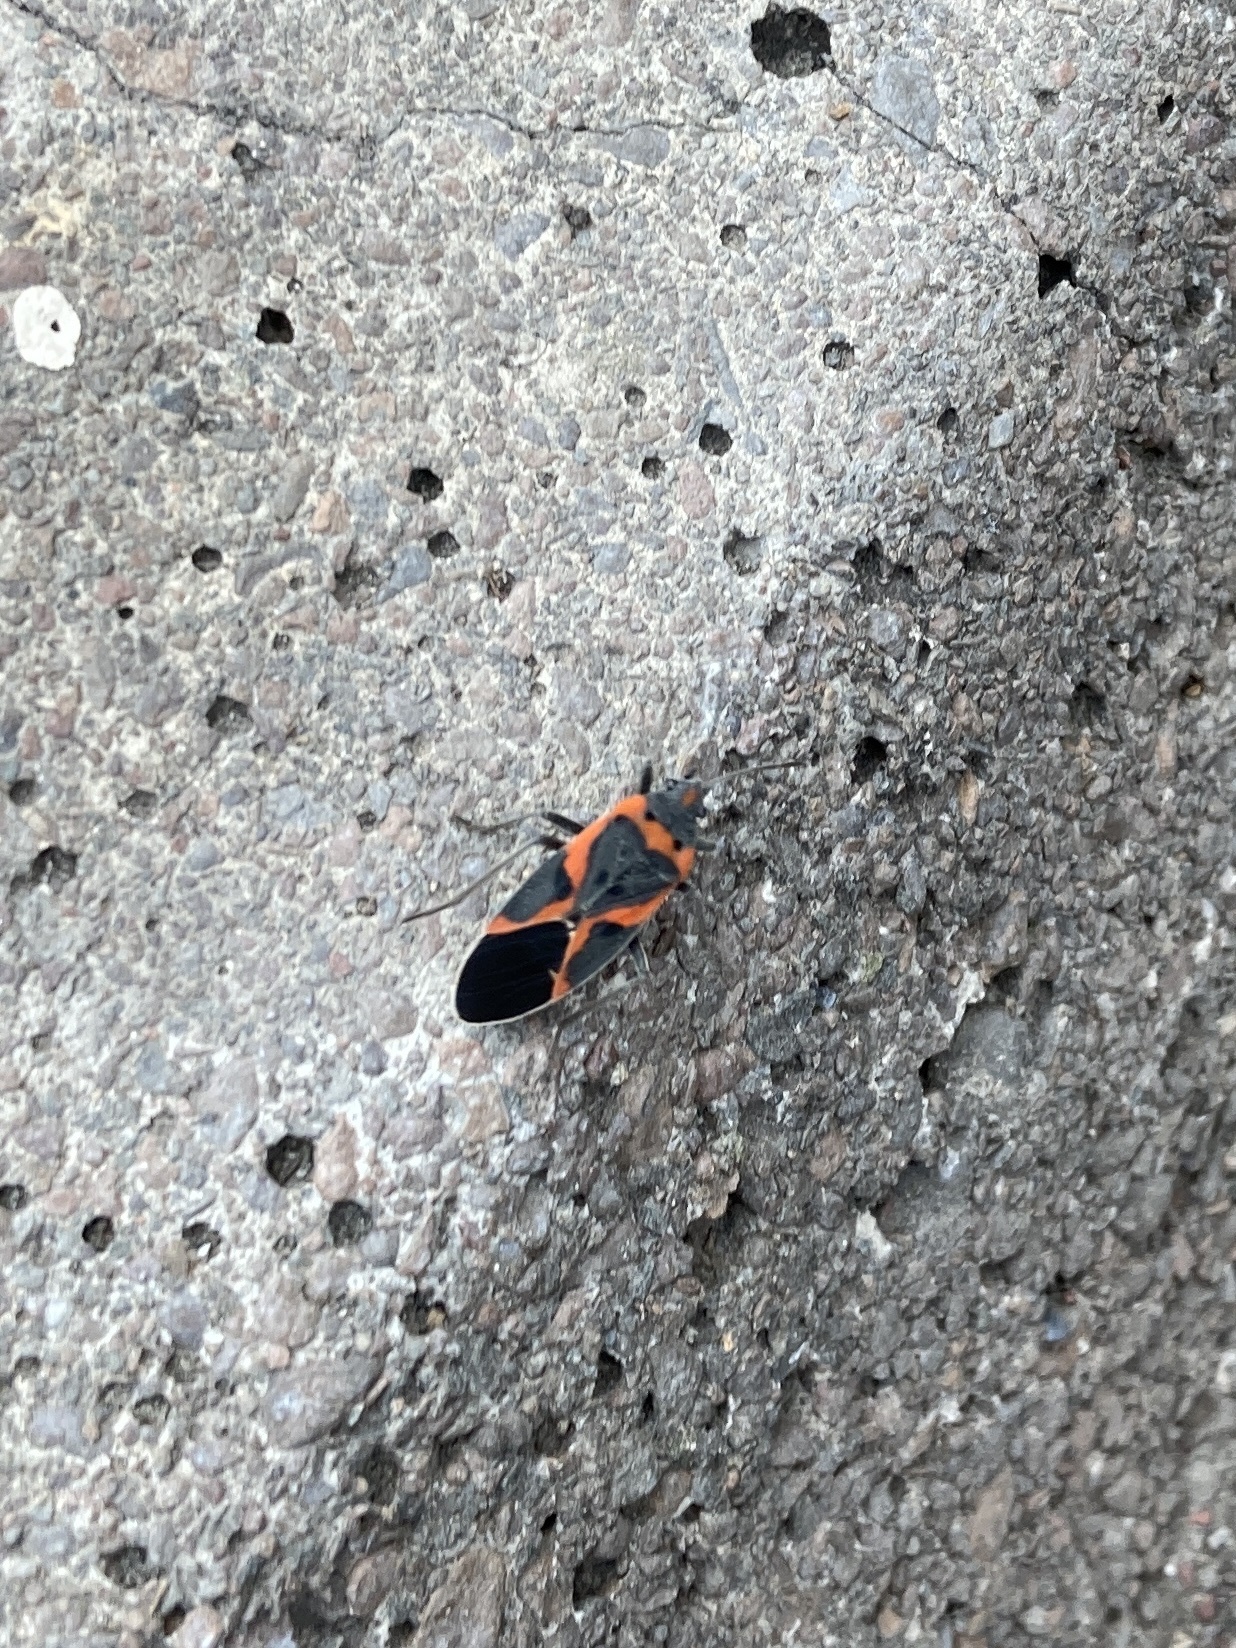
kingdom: Animalia
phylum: Arthropoda
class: Insecta
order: Hemiptera
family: Lygaeidae
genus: Lygaeus
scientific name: Lygaeus kalmii
